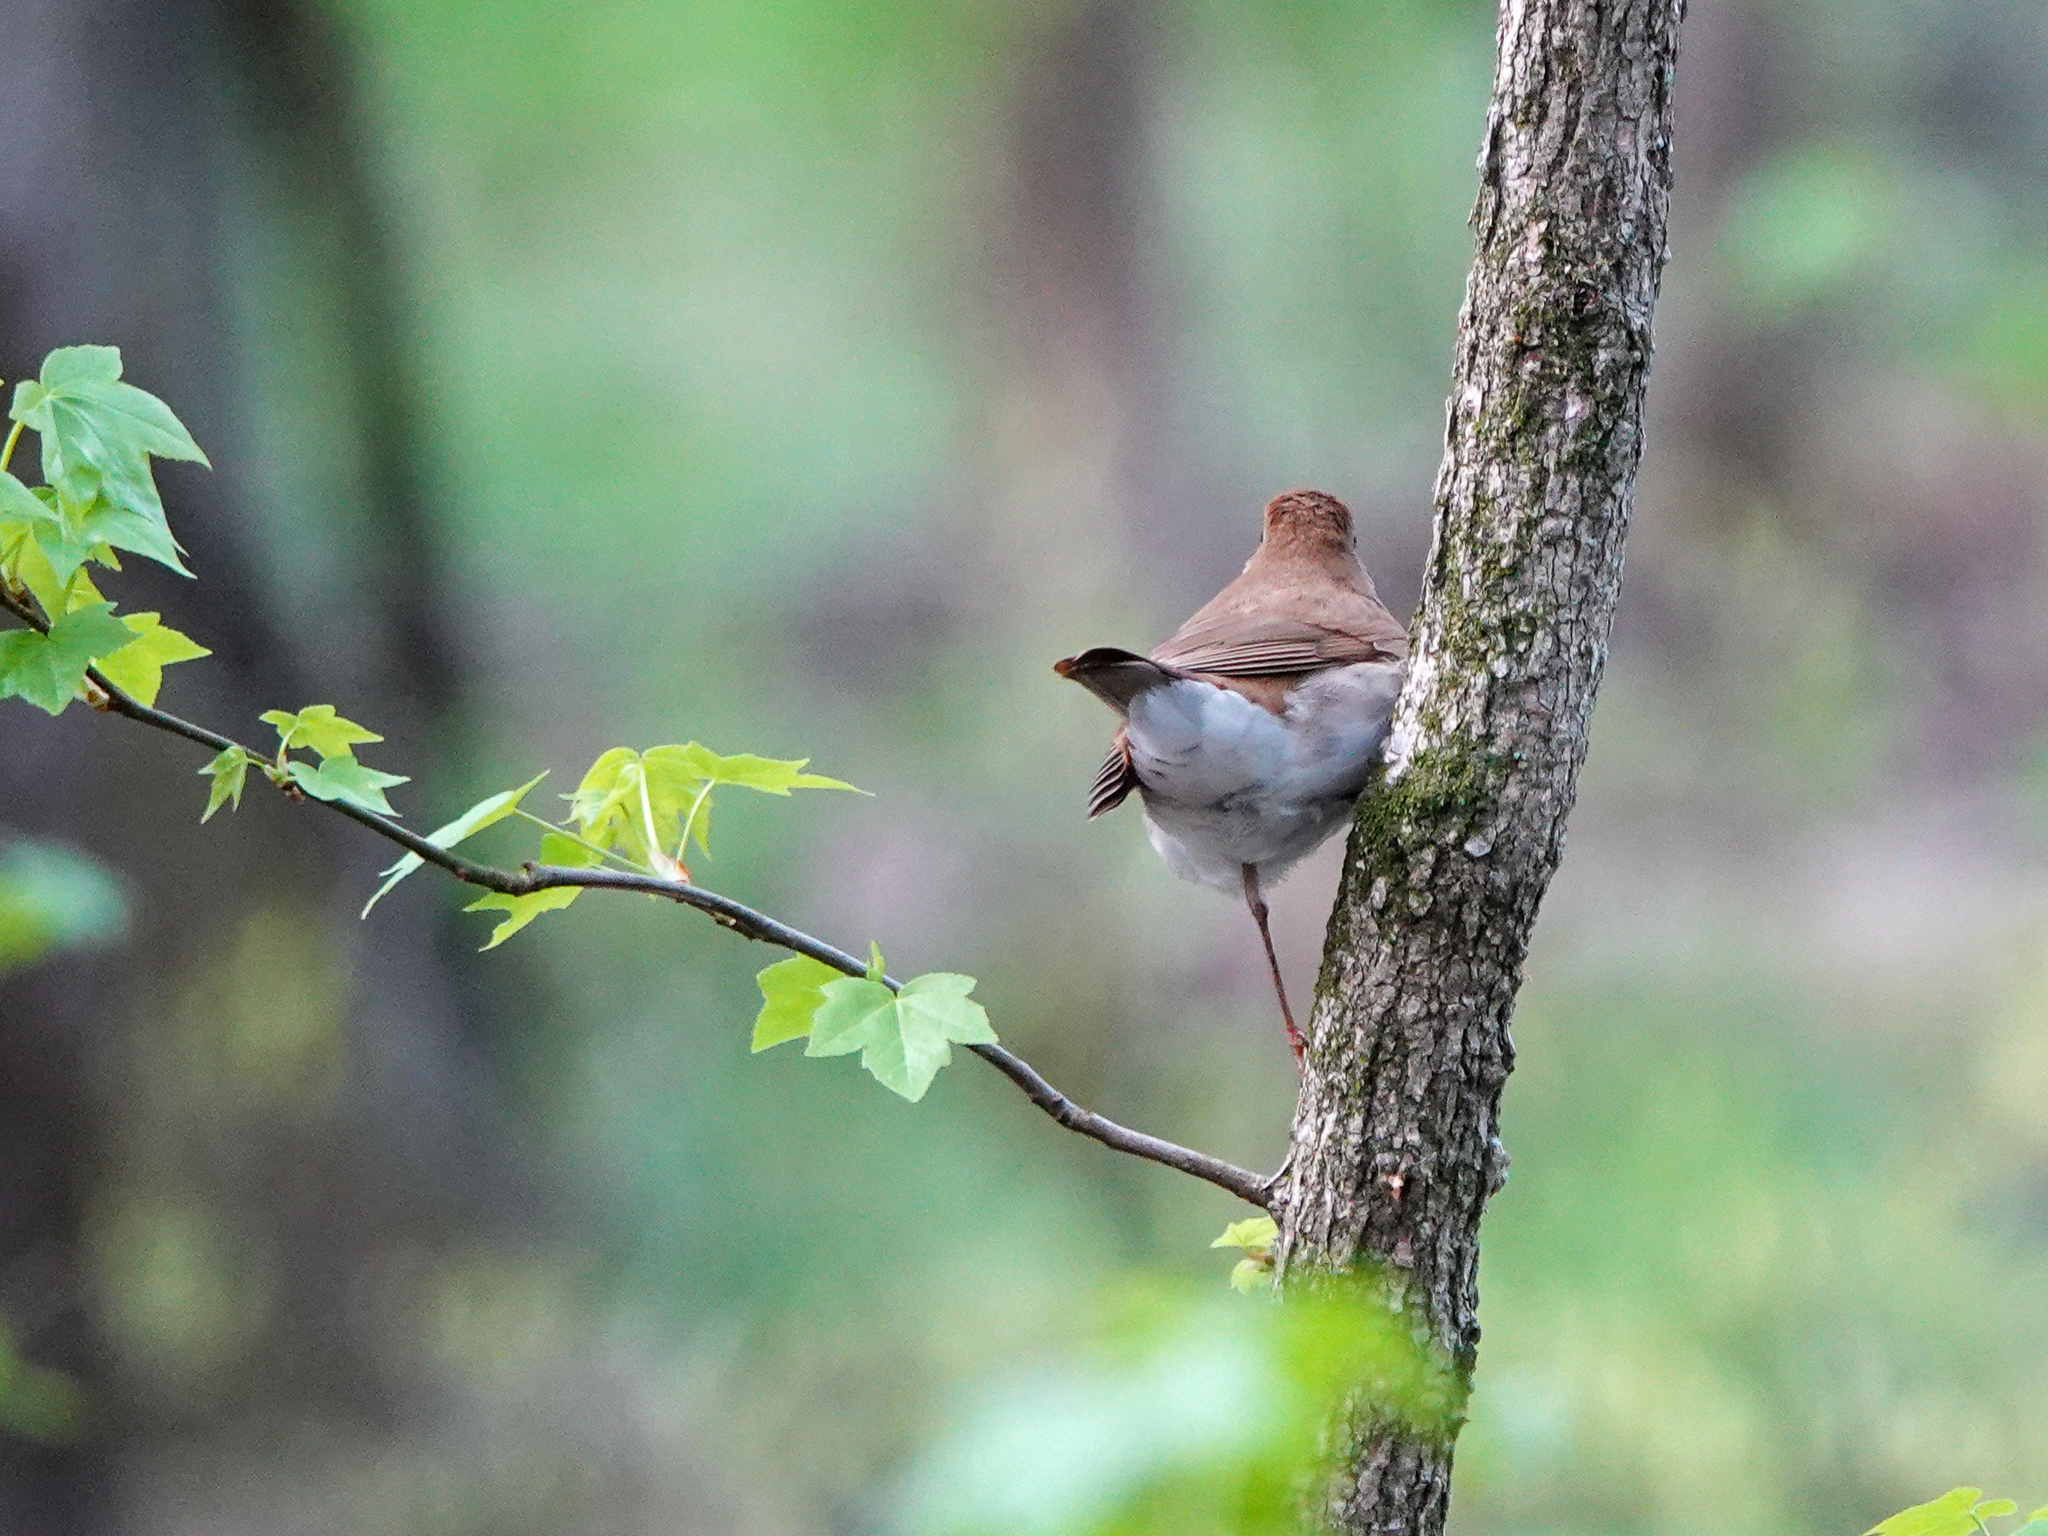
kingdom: Animalia
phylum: Chordata
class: Aves
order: Passeriformes
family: Turdidae
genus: Catharus
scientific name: Catharus fuscescens
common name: Veery
